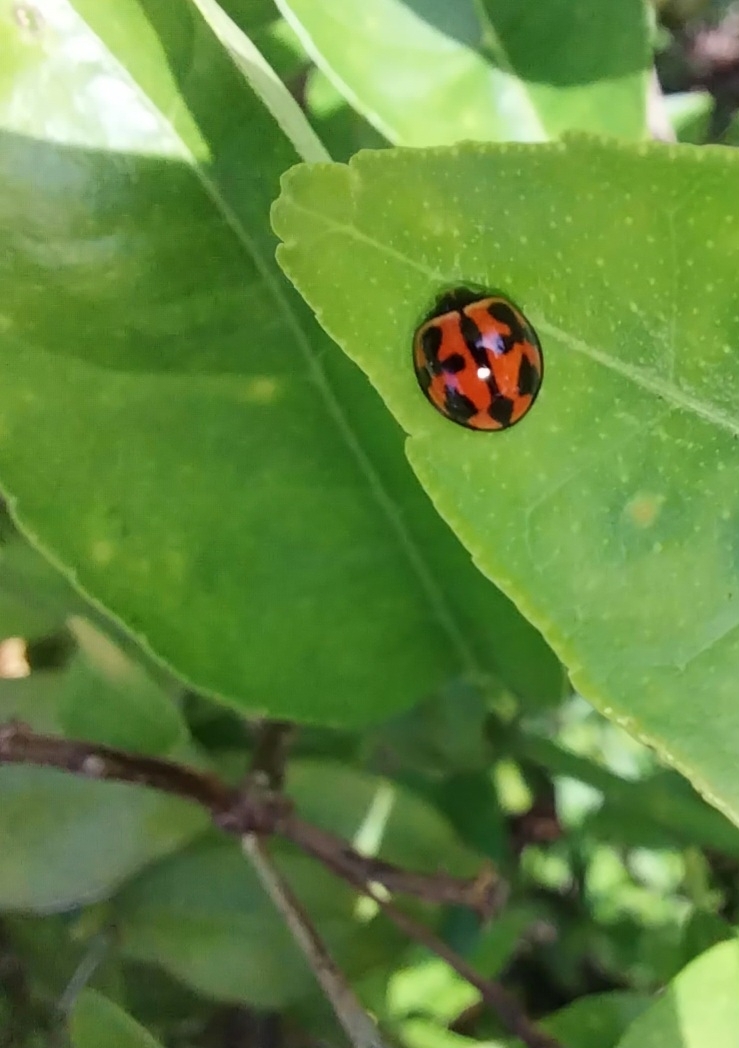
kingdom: Animalia
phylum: Arthropoda
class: Insecta
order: Coleoptera
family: Coccinellidae
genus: Coelophora
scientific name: Coelophora inaequalis
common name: Common australian lady beetle
